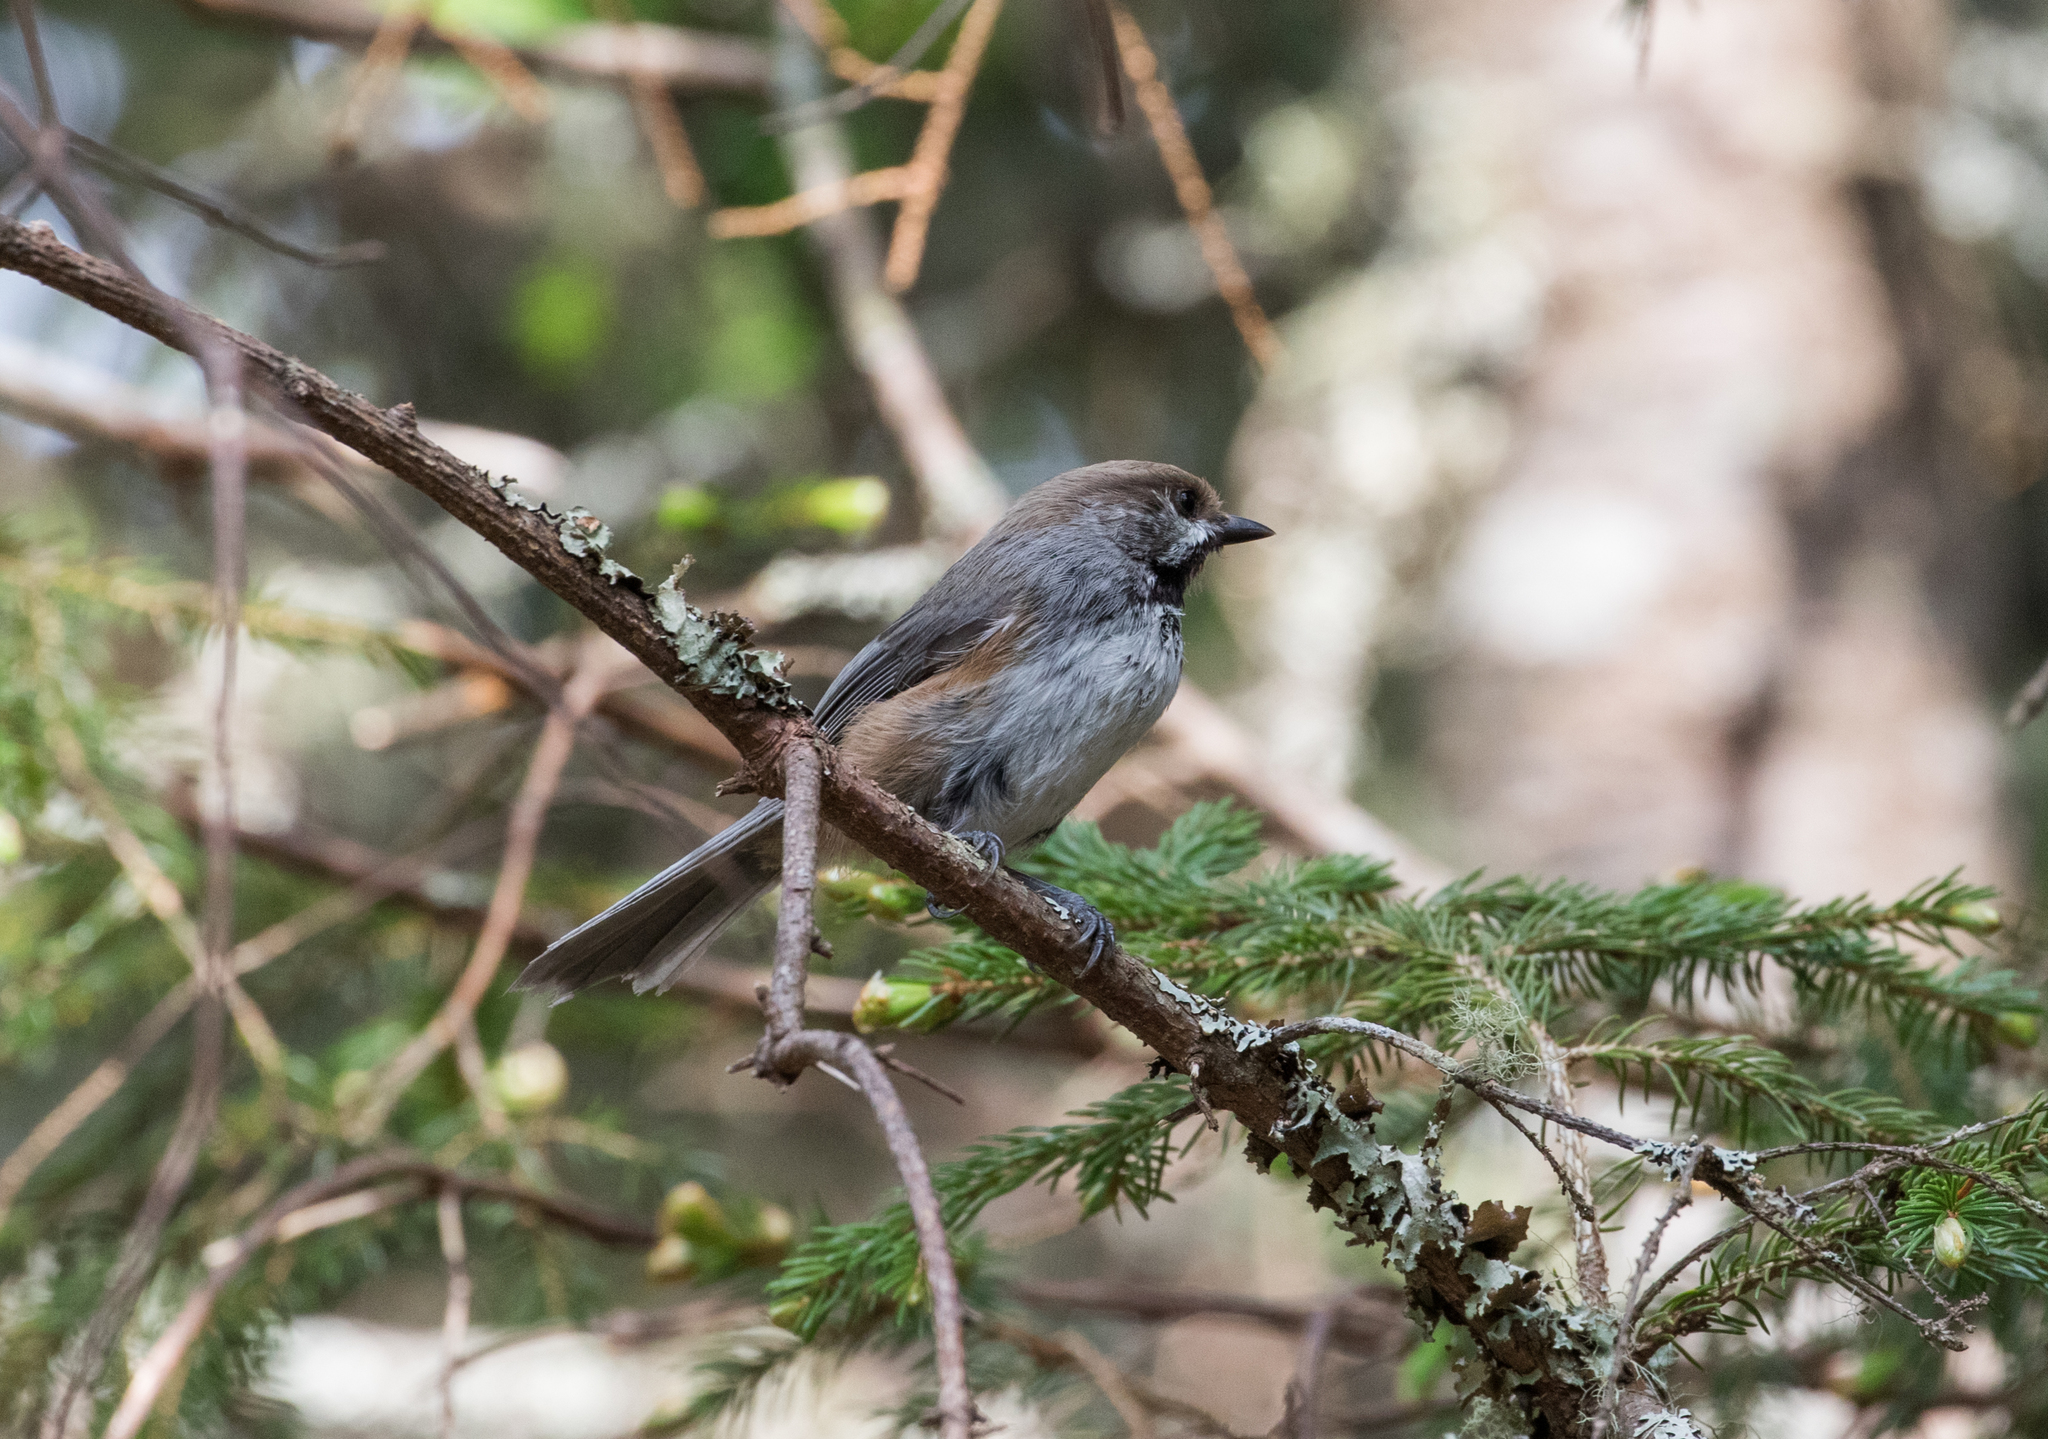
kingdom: Animalia
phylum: Chordata
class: Aves
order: Passeriformes
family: Paridae
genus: Poecile
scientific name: Poecile hudsonicus
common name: Boreal chickadee
